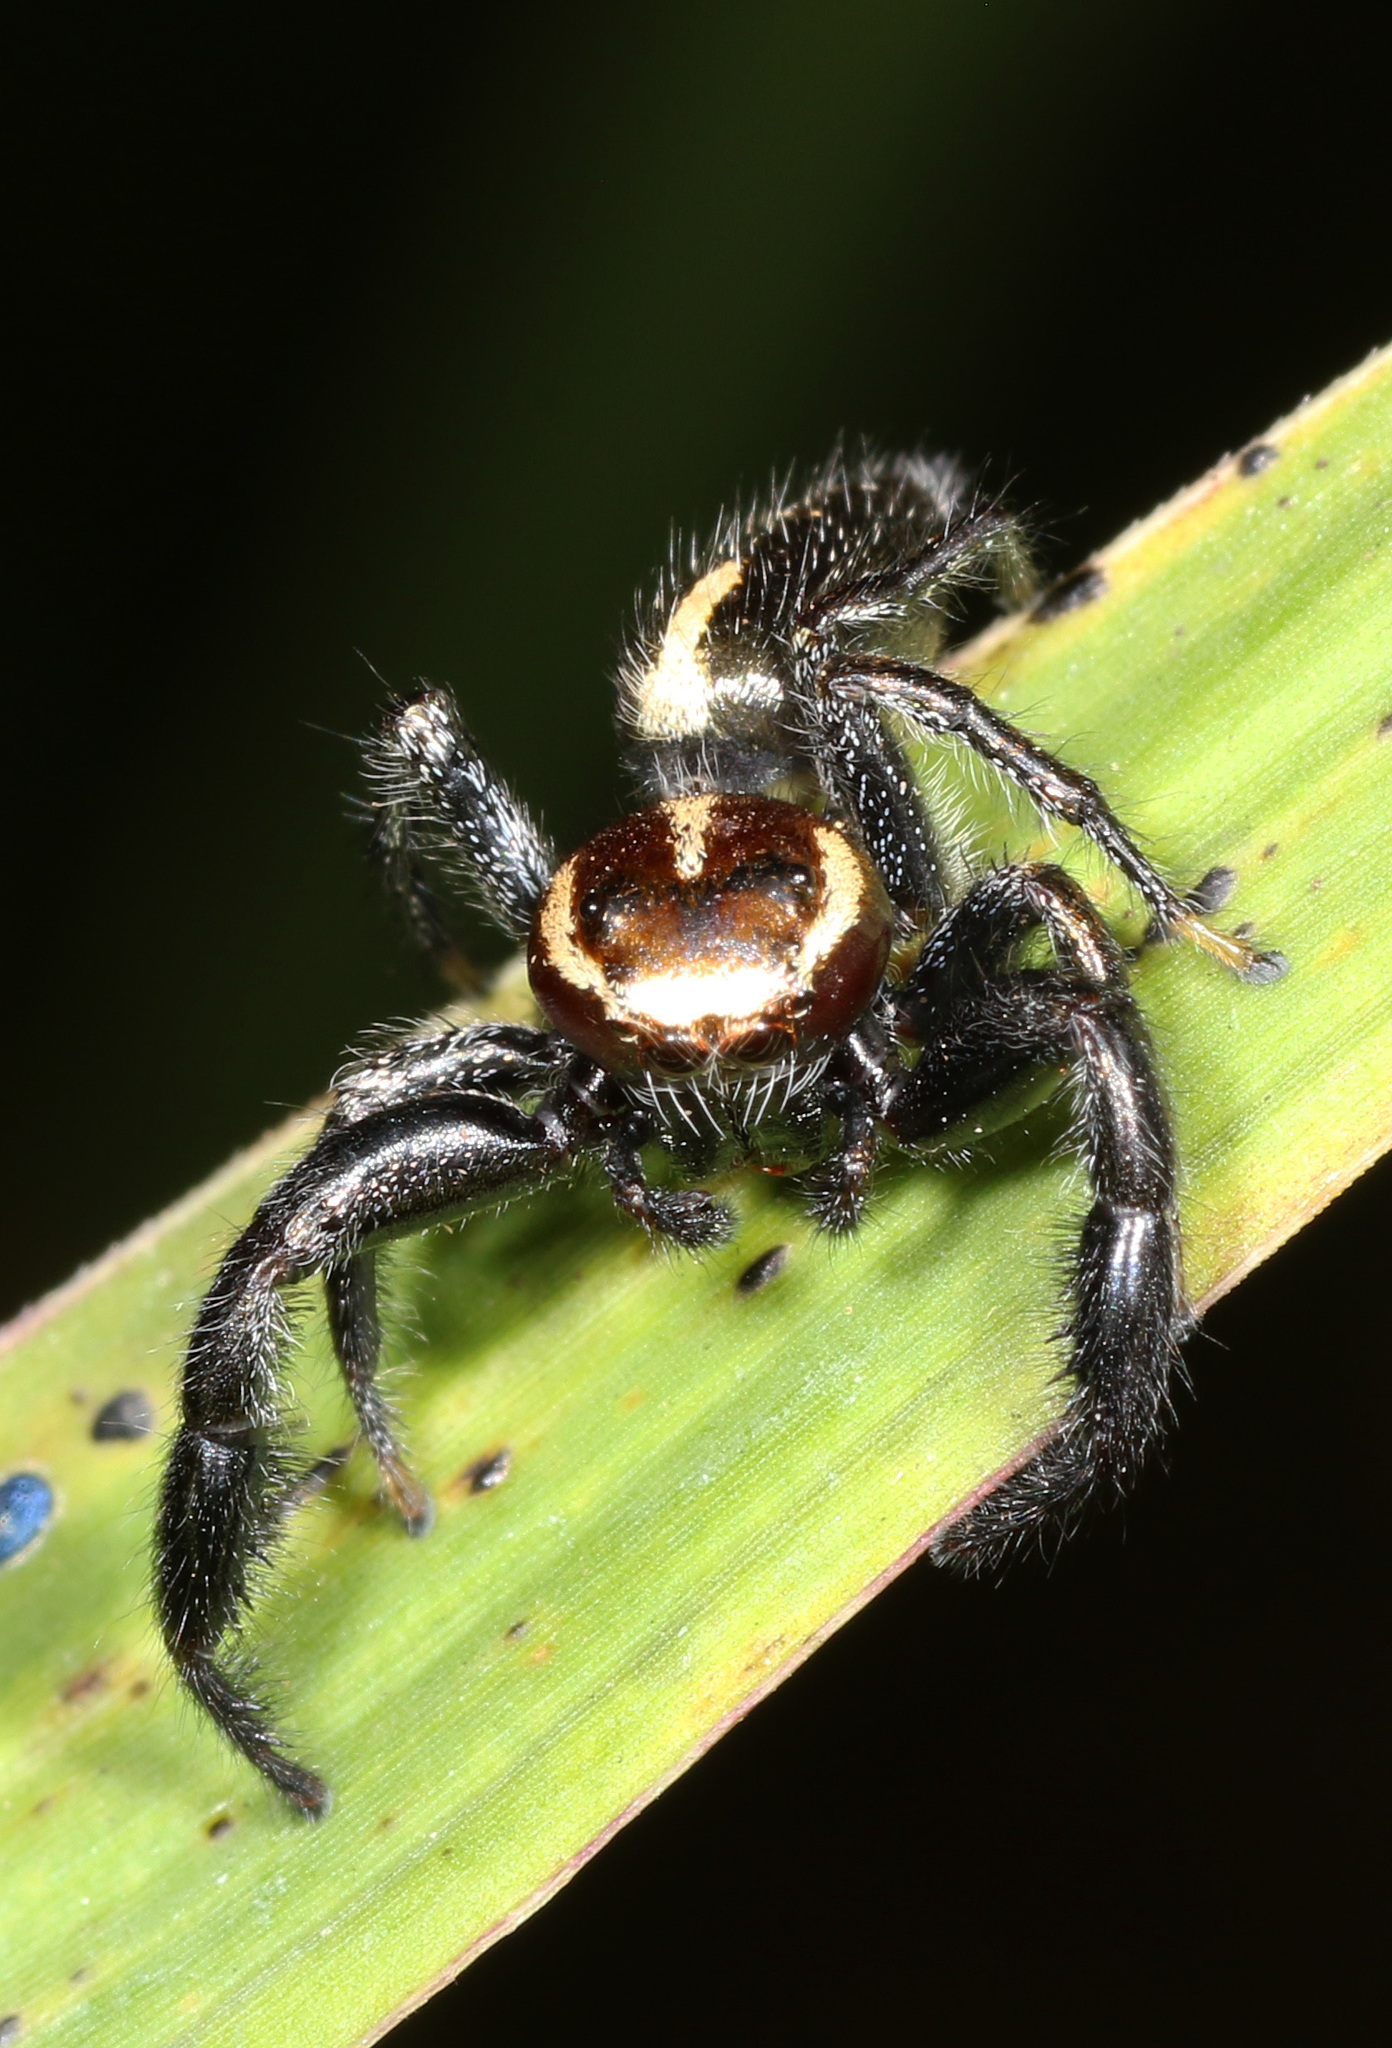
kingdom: Animalia
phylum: Arthropoda
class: Arachnida
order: Araneae
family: Salticidae
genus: Thyene
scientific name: Thyene bucculenta
